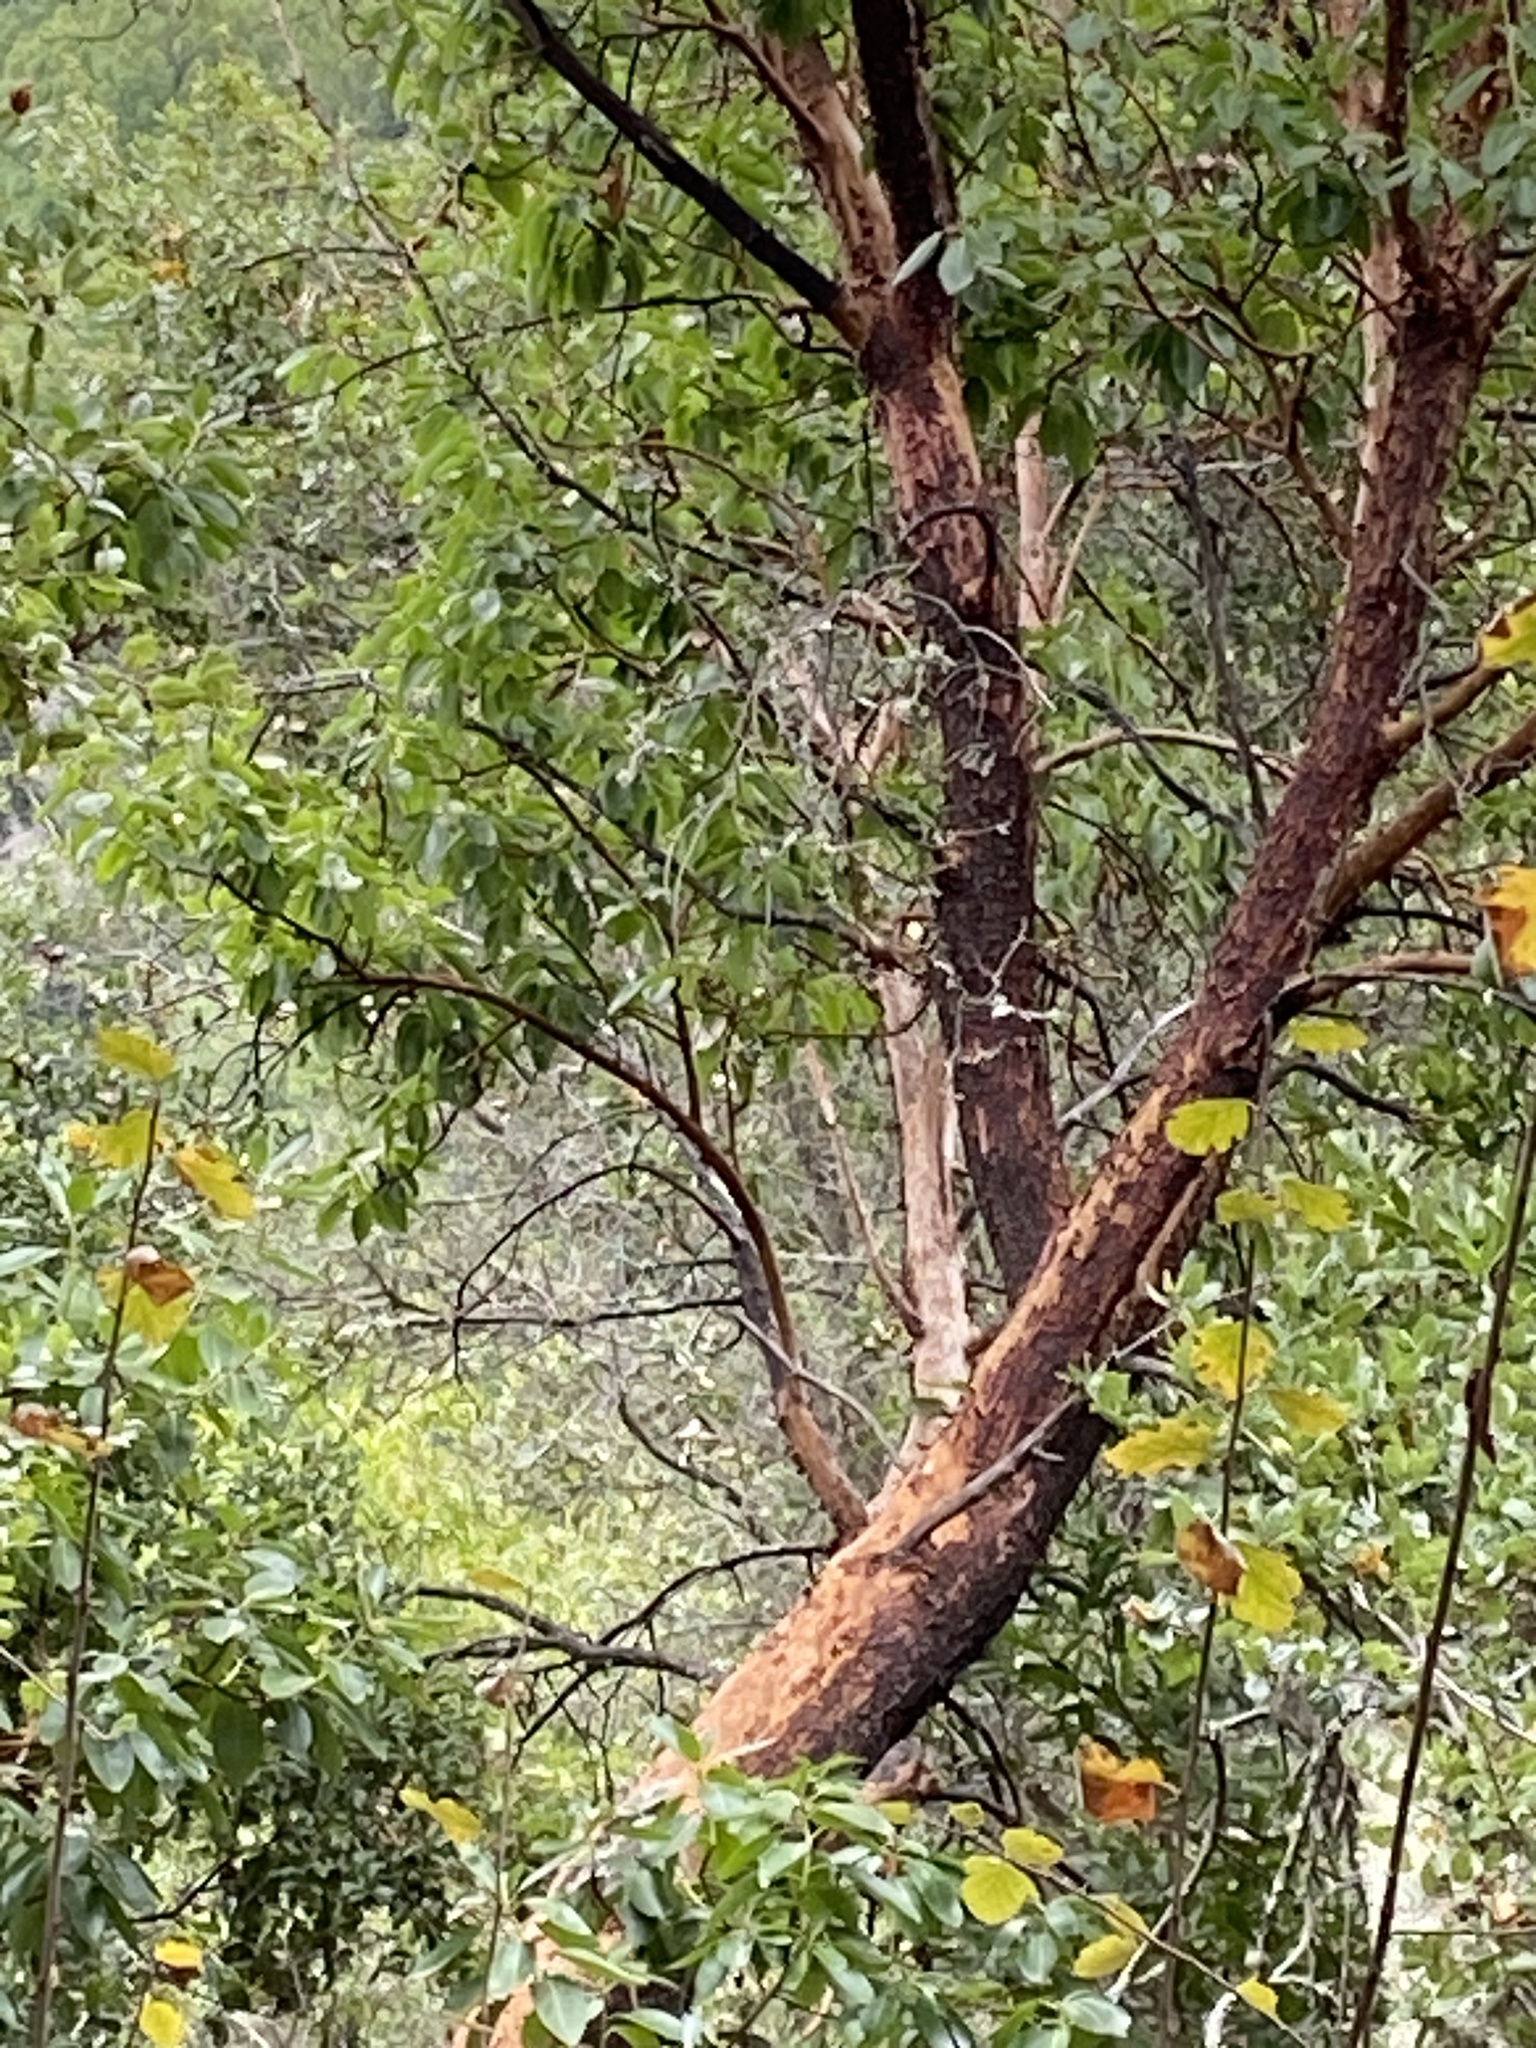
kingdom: Plantae
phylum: Tracheophyta
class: Magnoliopsida
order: Ericales
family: Ericaceae
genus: Arbutus
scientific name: Arbutus menziesii
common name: Pacific madrone
